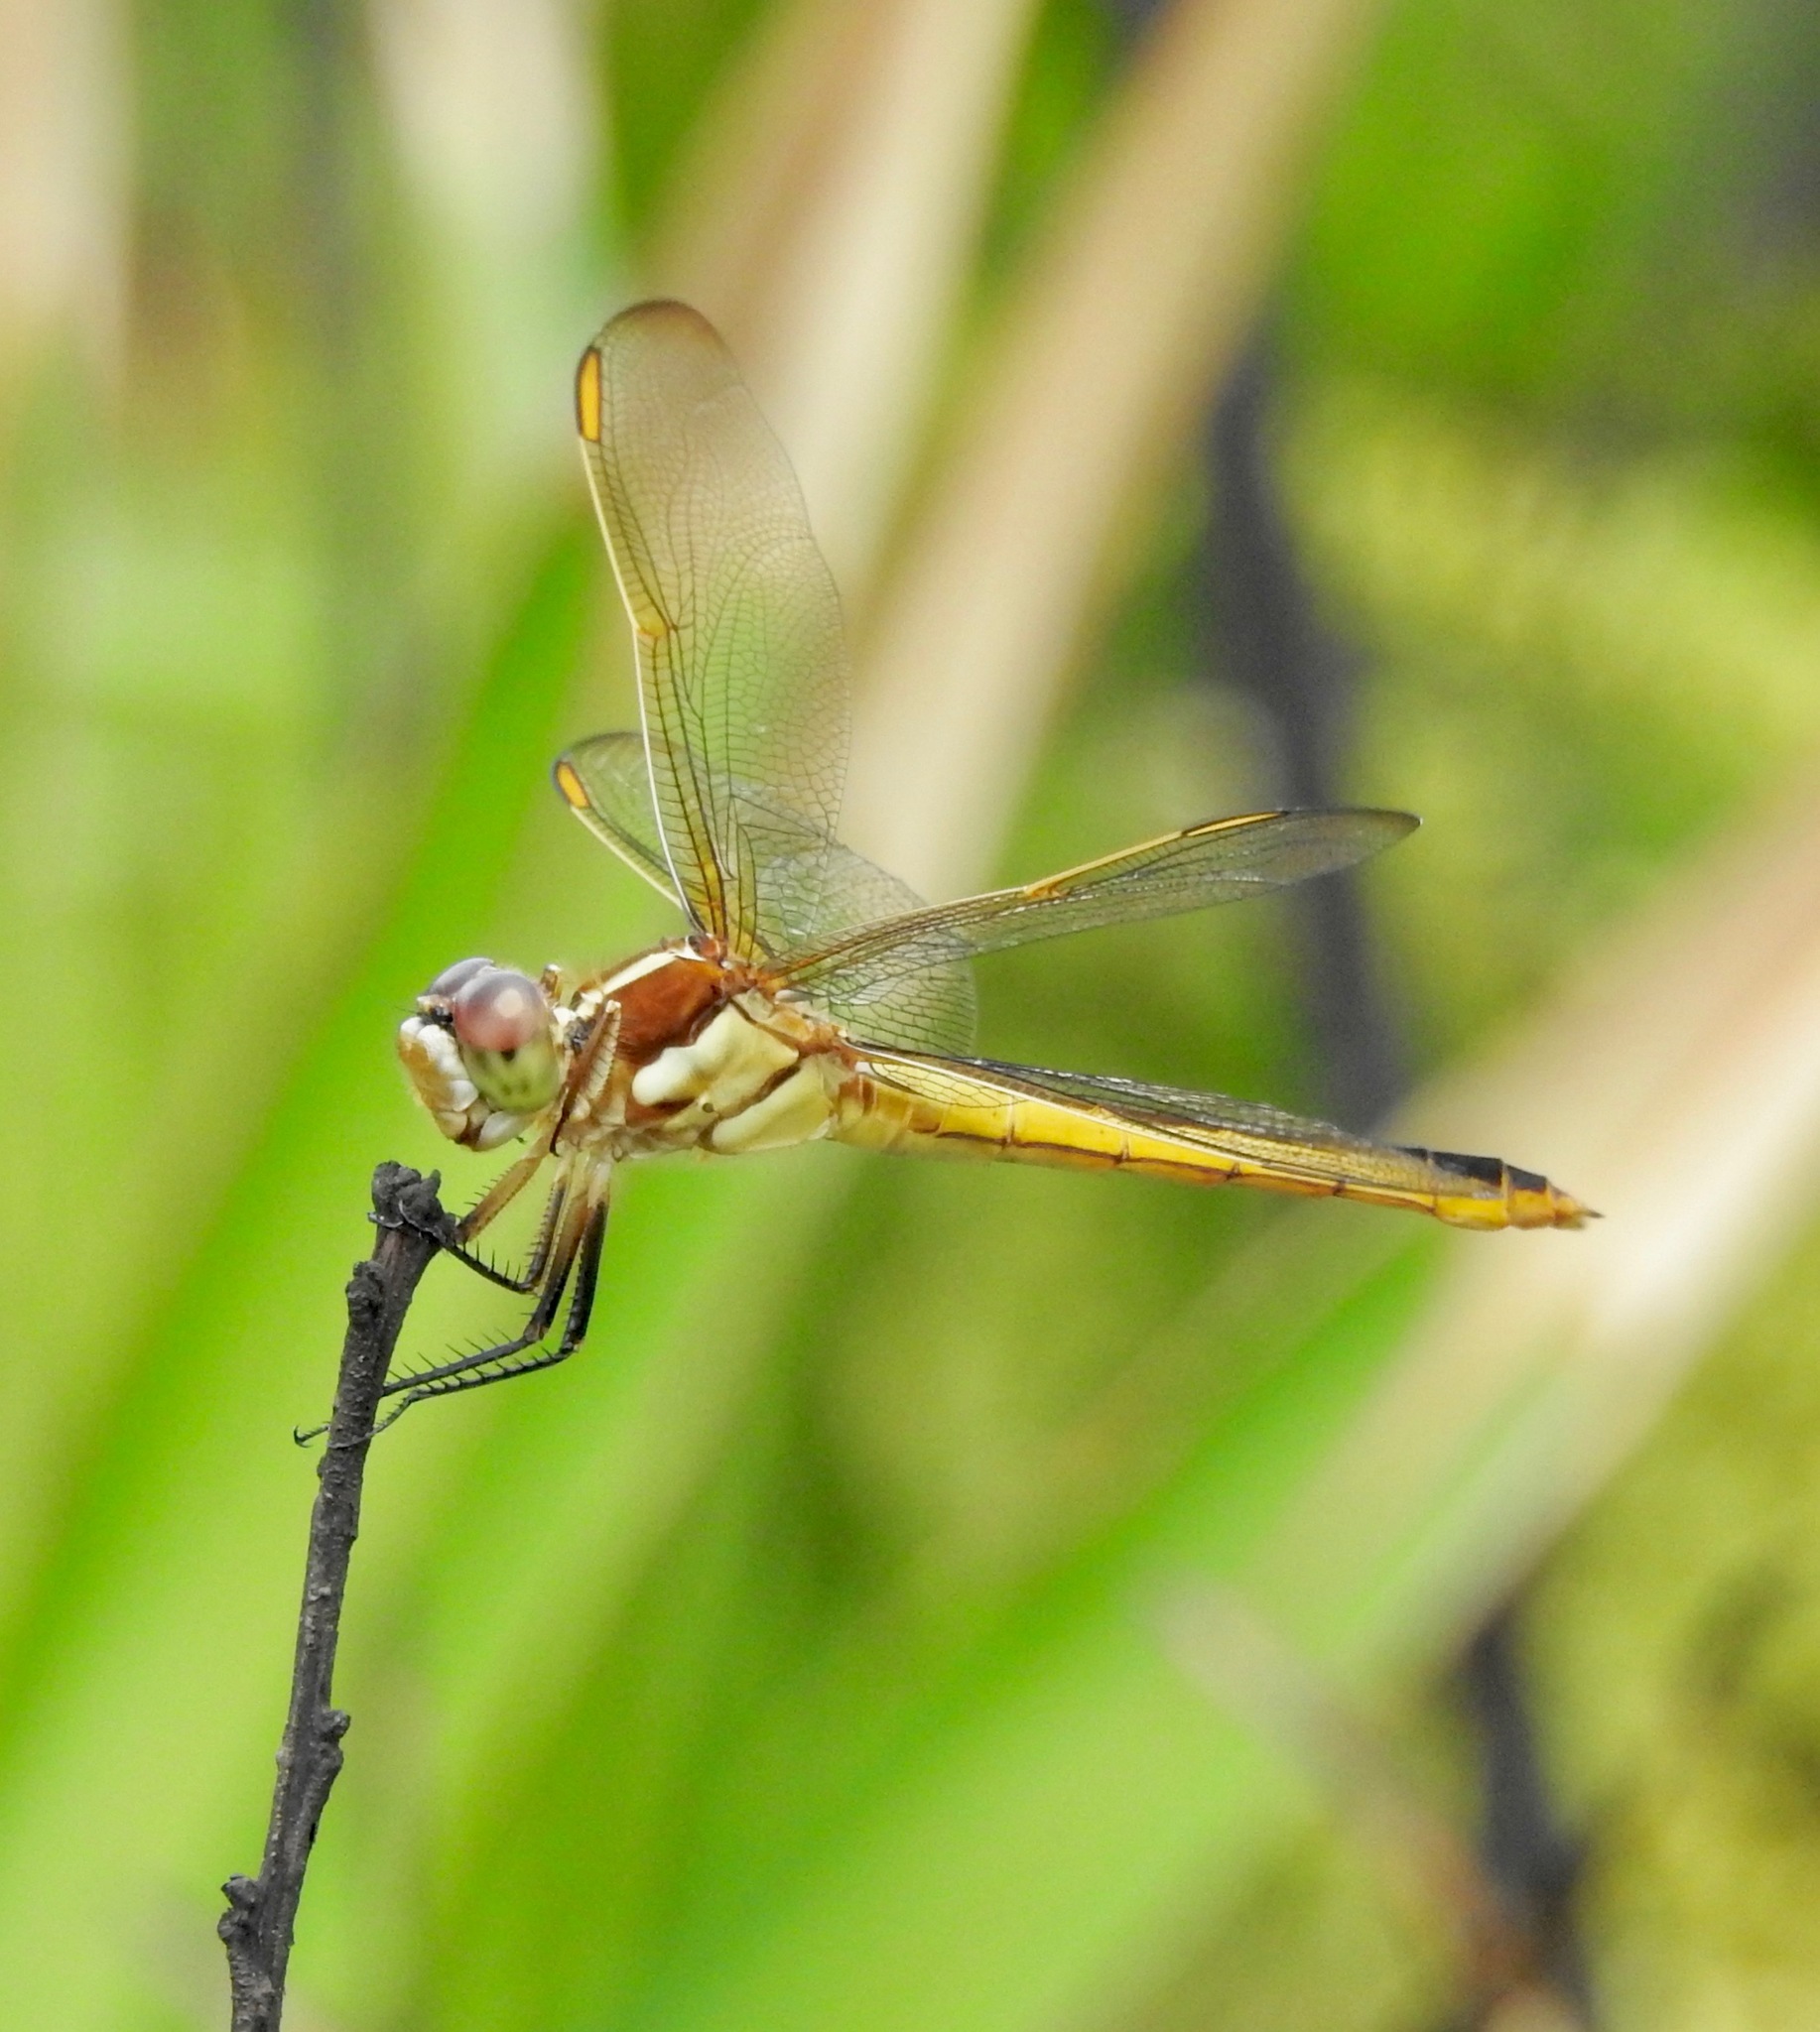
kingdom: Animalia
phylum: Arthropoda
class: Insecta
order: Odonata
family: Libellulidae
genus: Libellula
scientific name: Libellula auripennis
